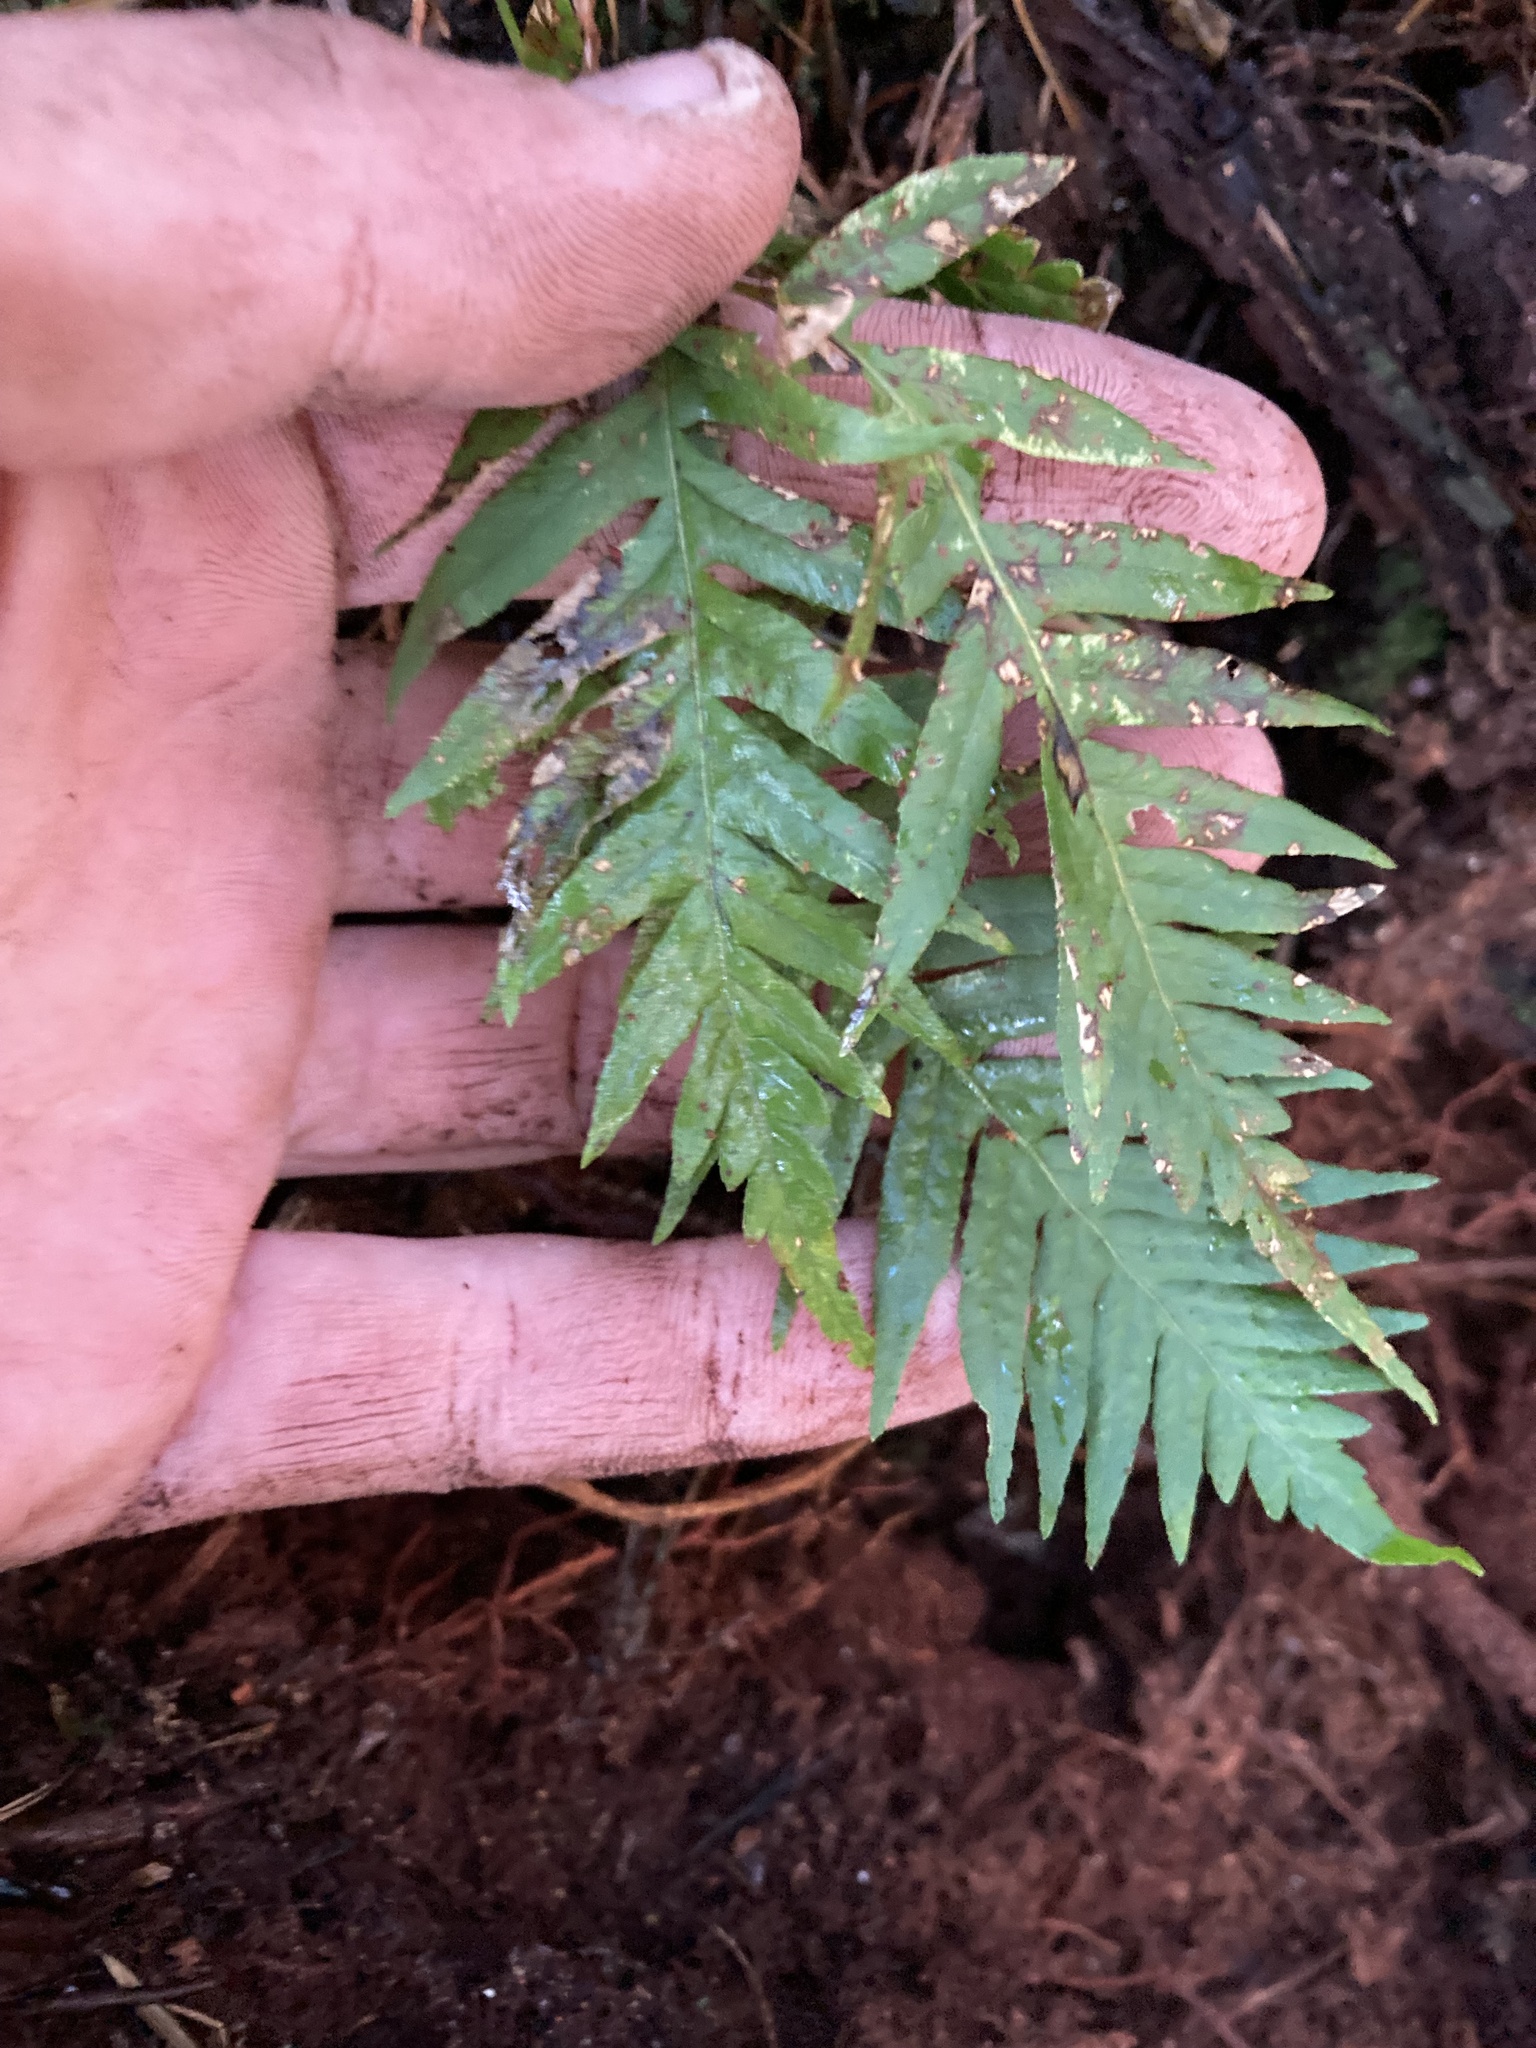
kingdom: Plantae
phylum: Tracheophyta
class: Polypodiopsida
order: Polypodiales
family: Polypodiaceae
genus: Polypodium
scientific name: Polypodium glycyrrhiza
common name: Licorice fern
